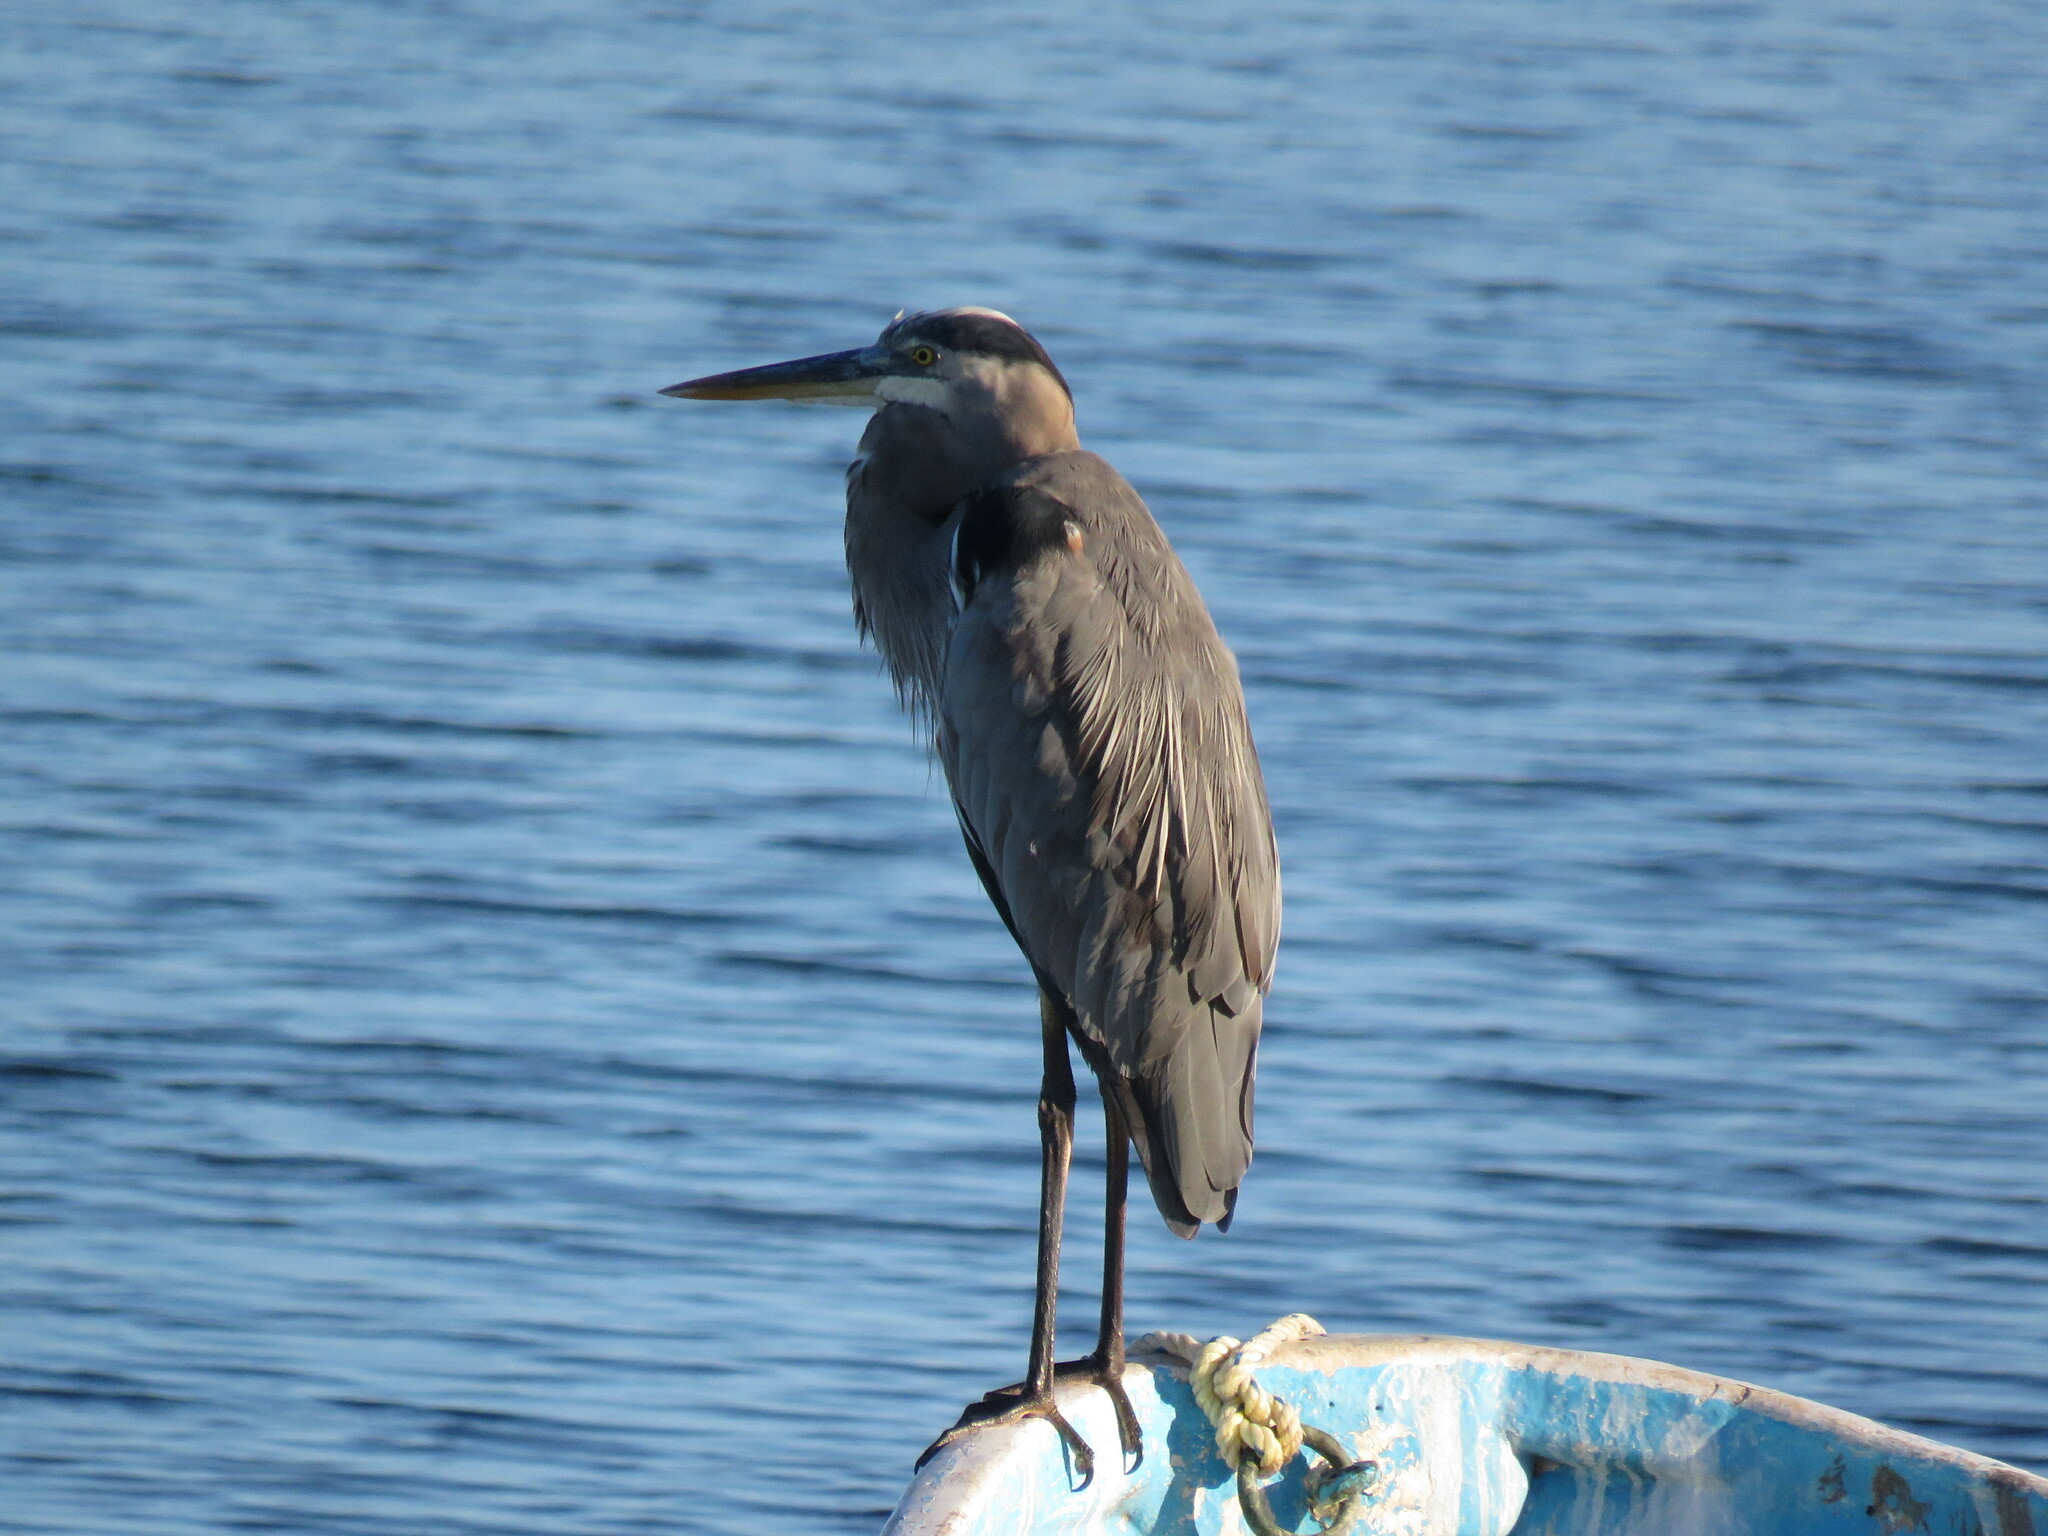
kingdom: Animalia
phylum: Chordata
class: Aves
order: Pelecaniformes
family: Ardeidae
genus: Ardea
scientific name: Ardea herodias
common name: Great blue heron
